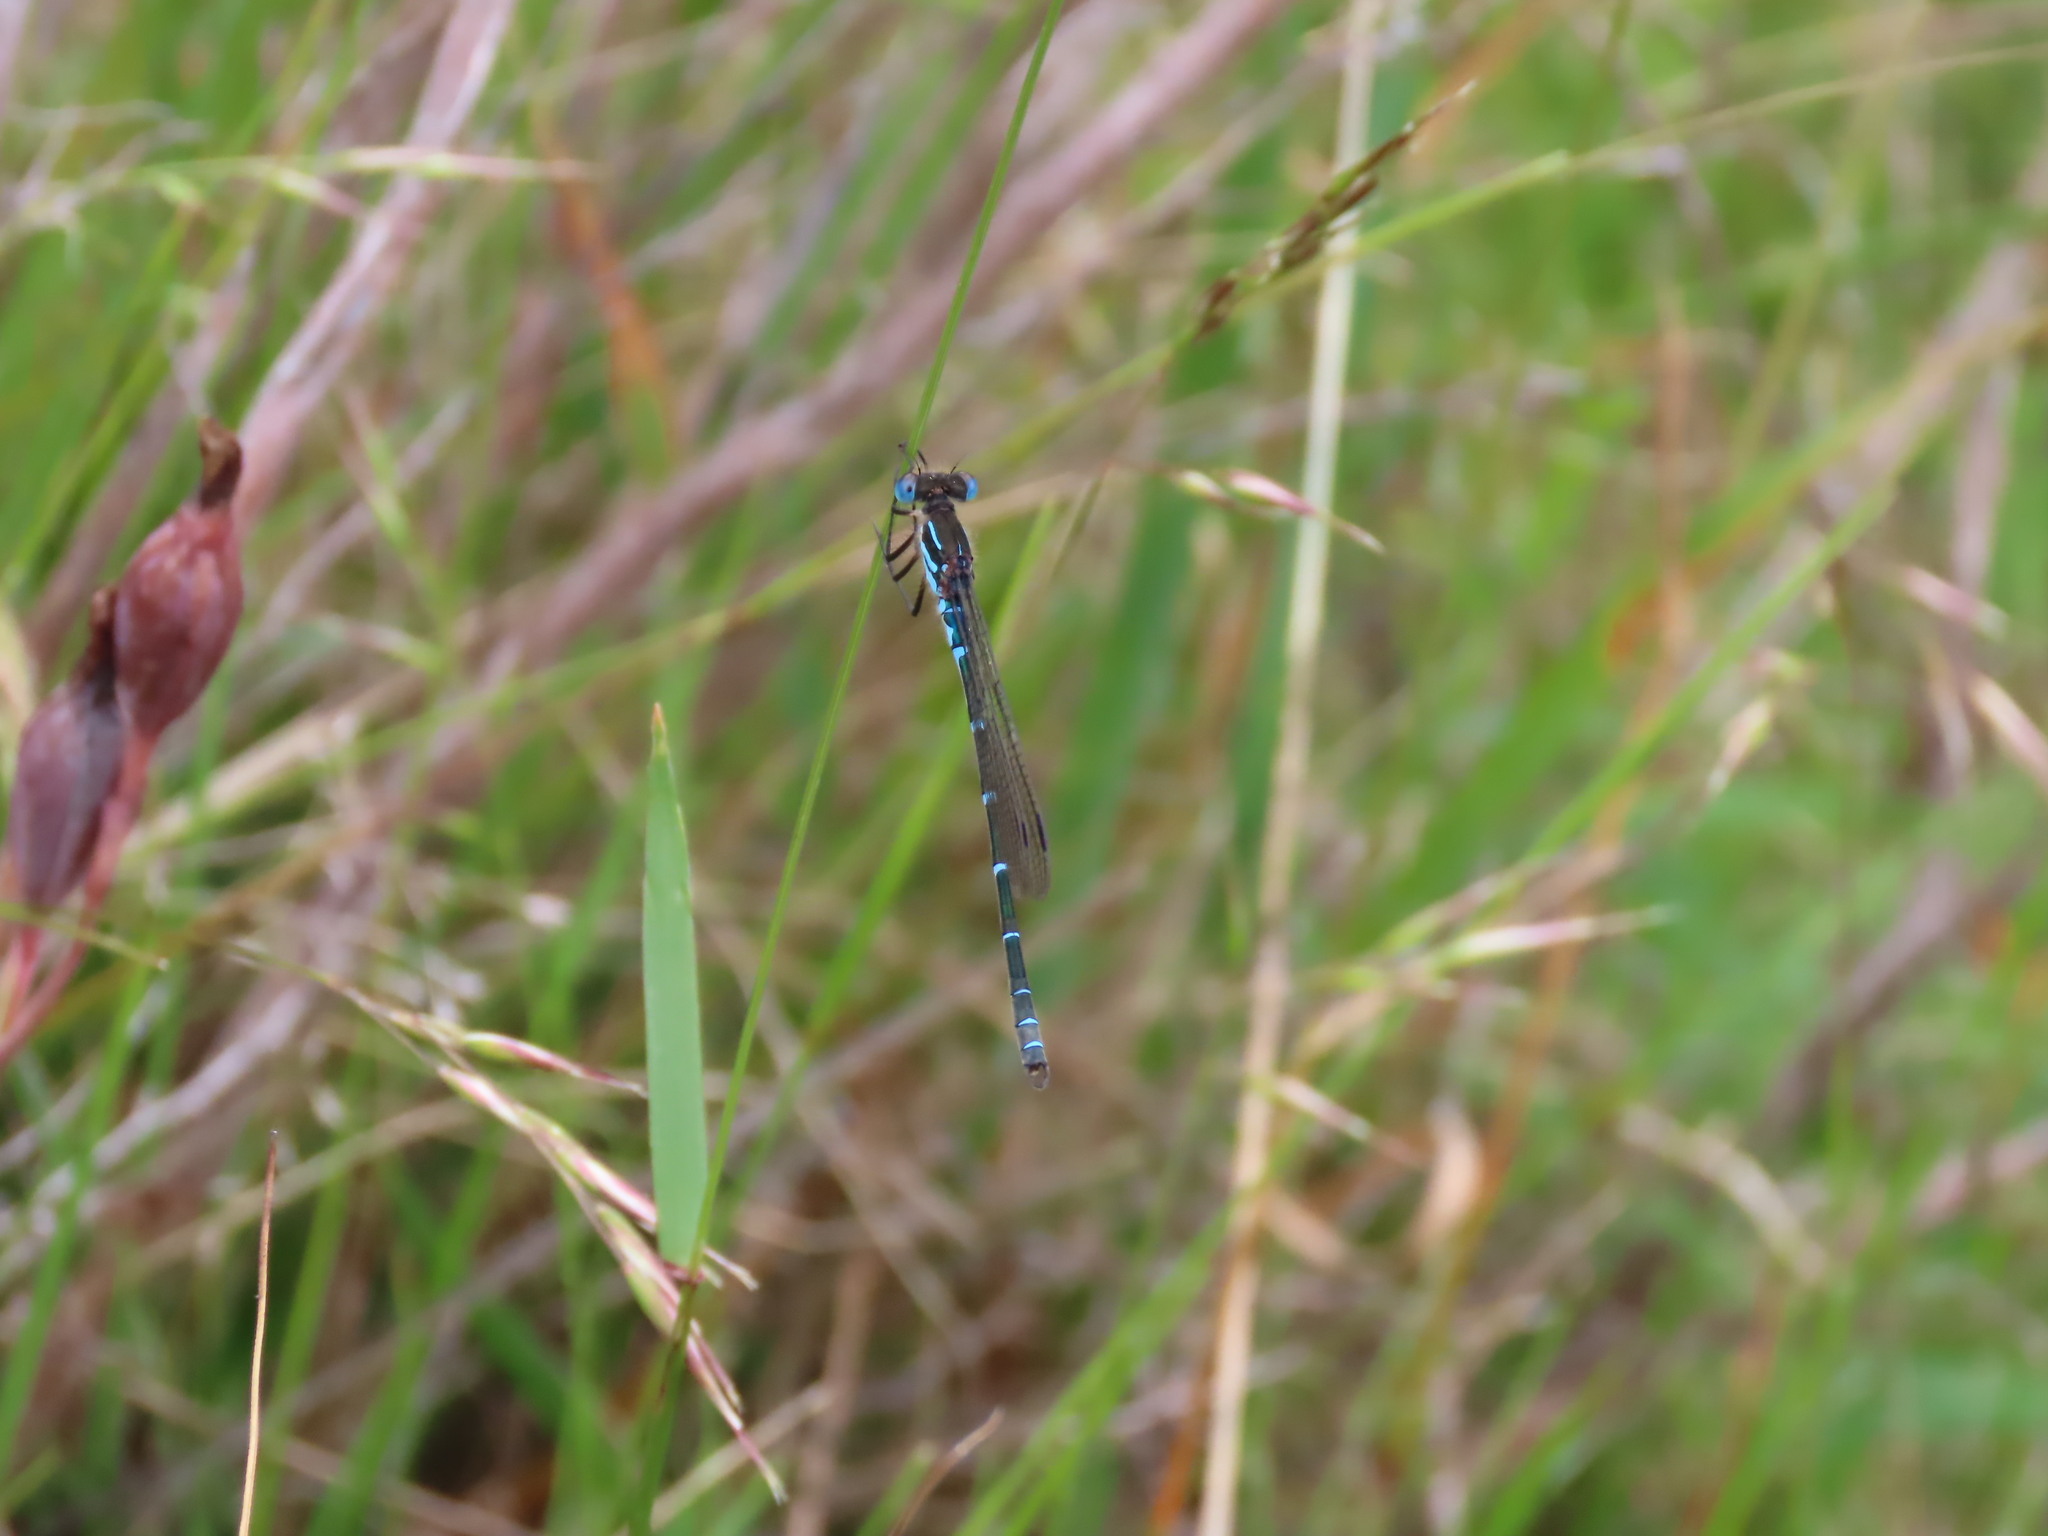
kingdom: Animalia
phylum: Arthropoda
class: Insecta
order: Odonata
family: Lestidae
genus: Austrolestes
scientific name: Austrolestes psyche
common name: Cup ringtail
